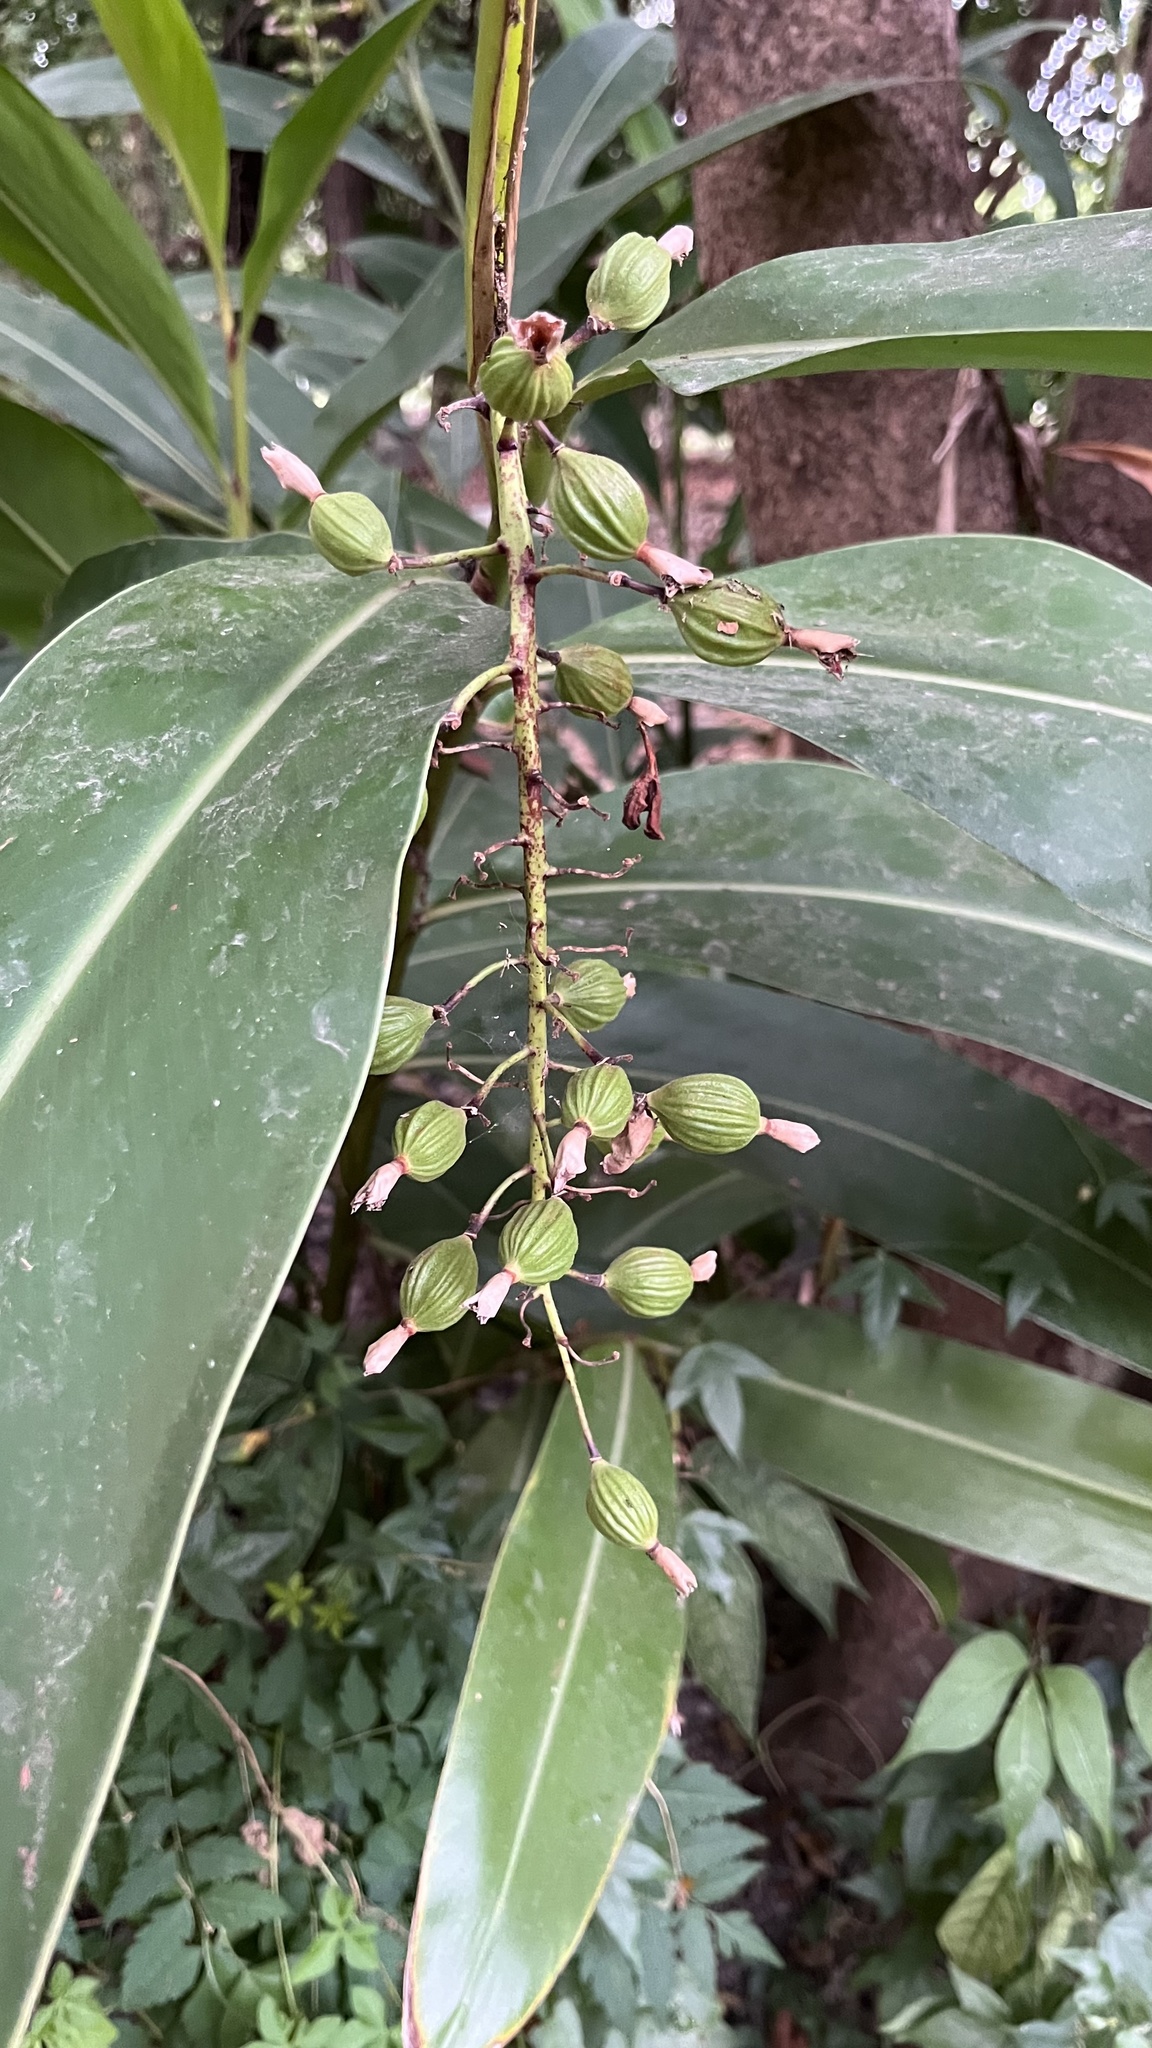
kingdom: Plantae
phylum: Tracheophyta
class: Liliopsida
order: Zingiberales
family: Zingiberaceae
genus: Alpinia
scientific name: Alpinia zerumbet
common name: Shellplant
